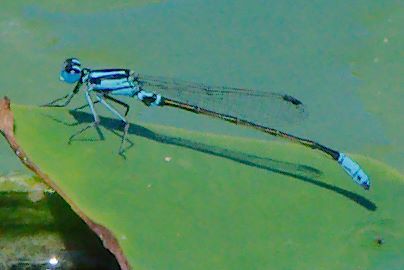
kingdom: Animalia
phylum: Arthropoda
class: Insecta
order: Odonata
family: Coenagrionidae
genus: Ischnura
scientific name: Ischnura kellicotti
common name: Lilypad forktail
